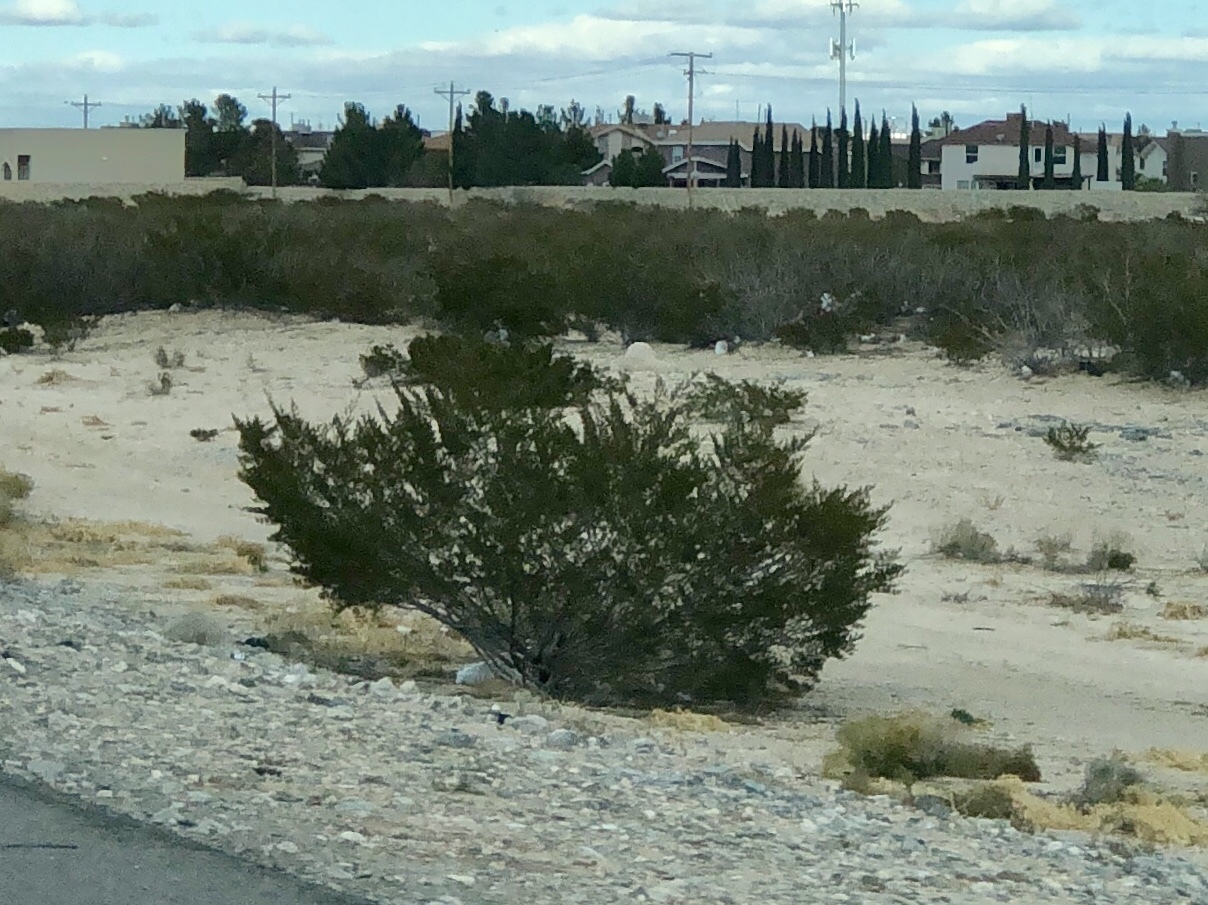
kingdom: Plantae
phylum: Tracheophyta
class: Magnoliopsida
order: Zygophyllales
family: Zygophyllaceae
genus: Larrea
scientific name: Larrea tridentata
